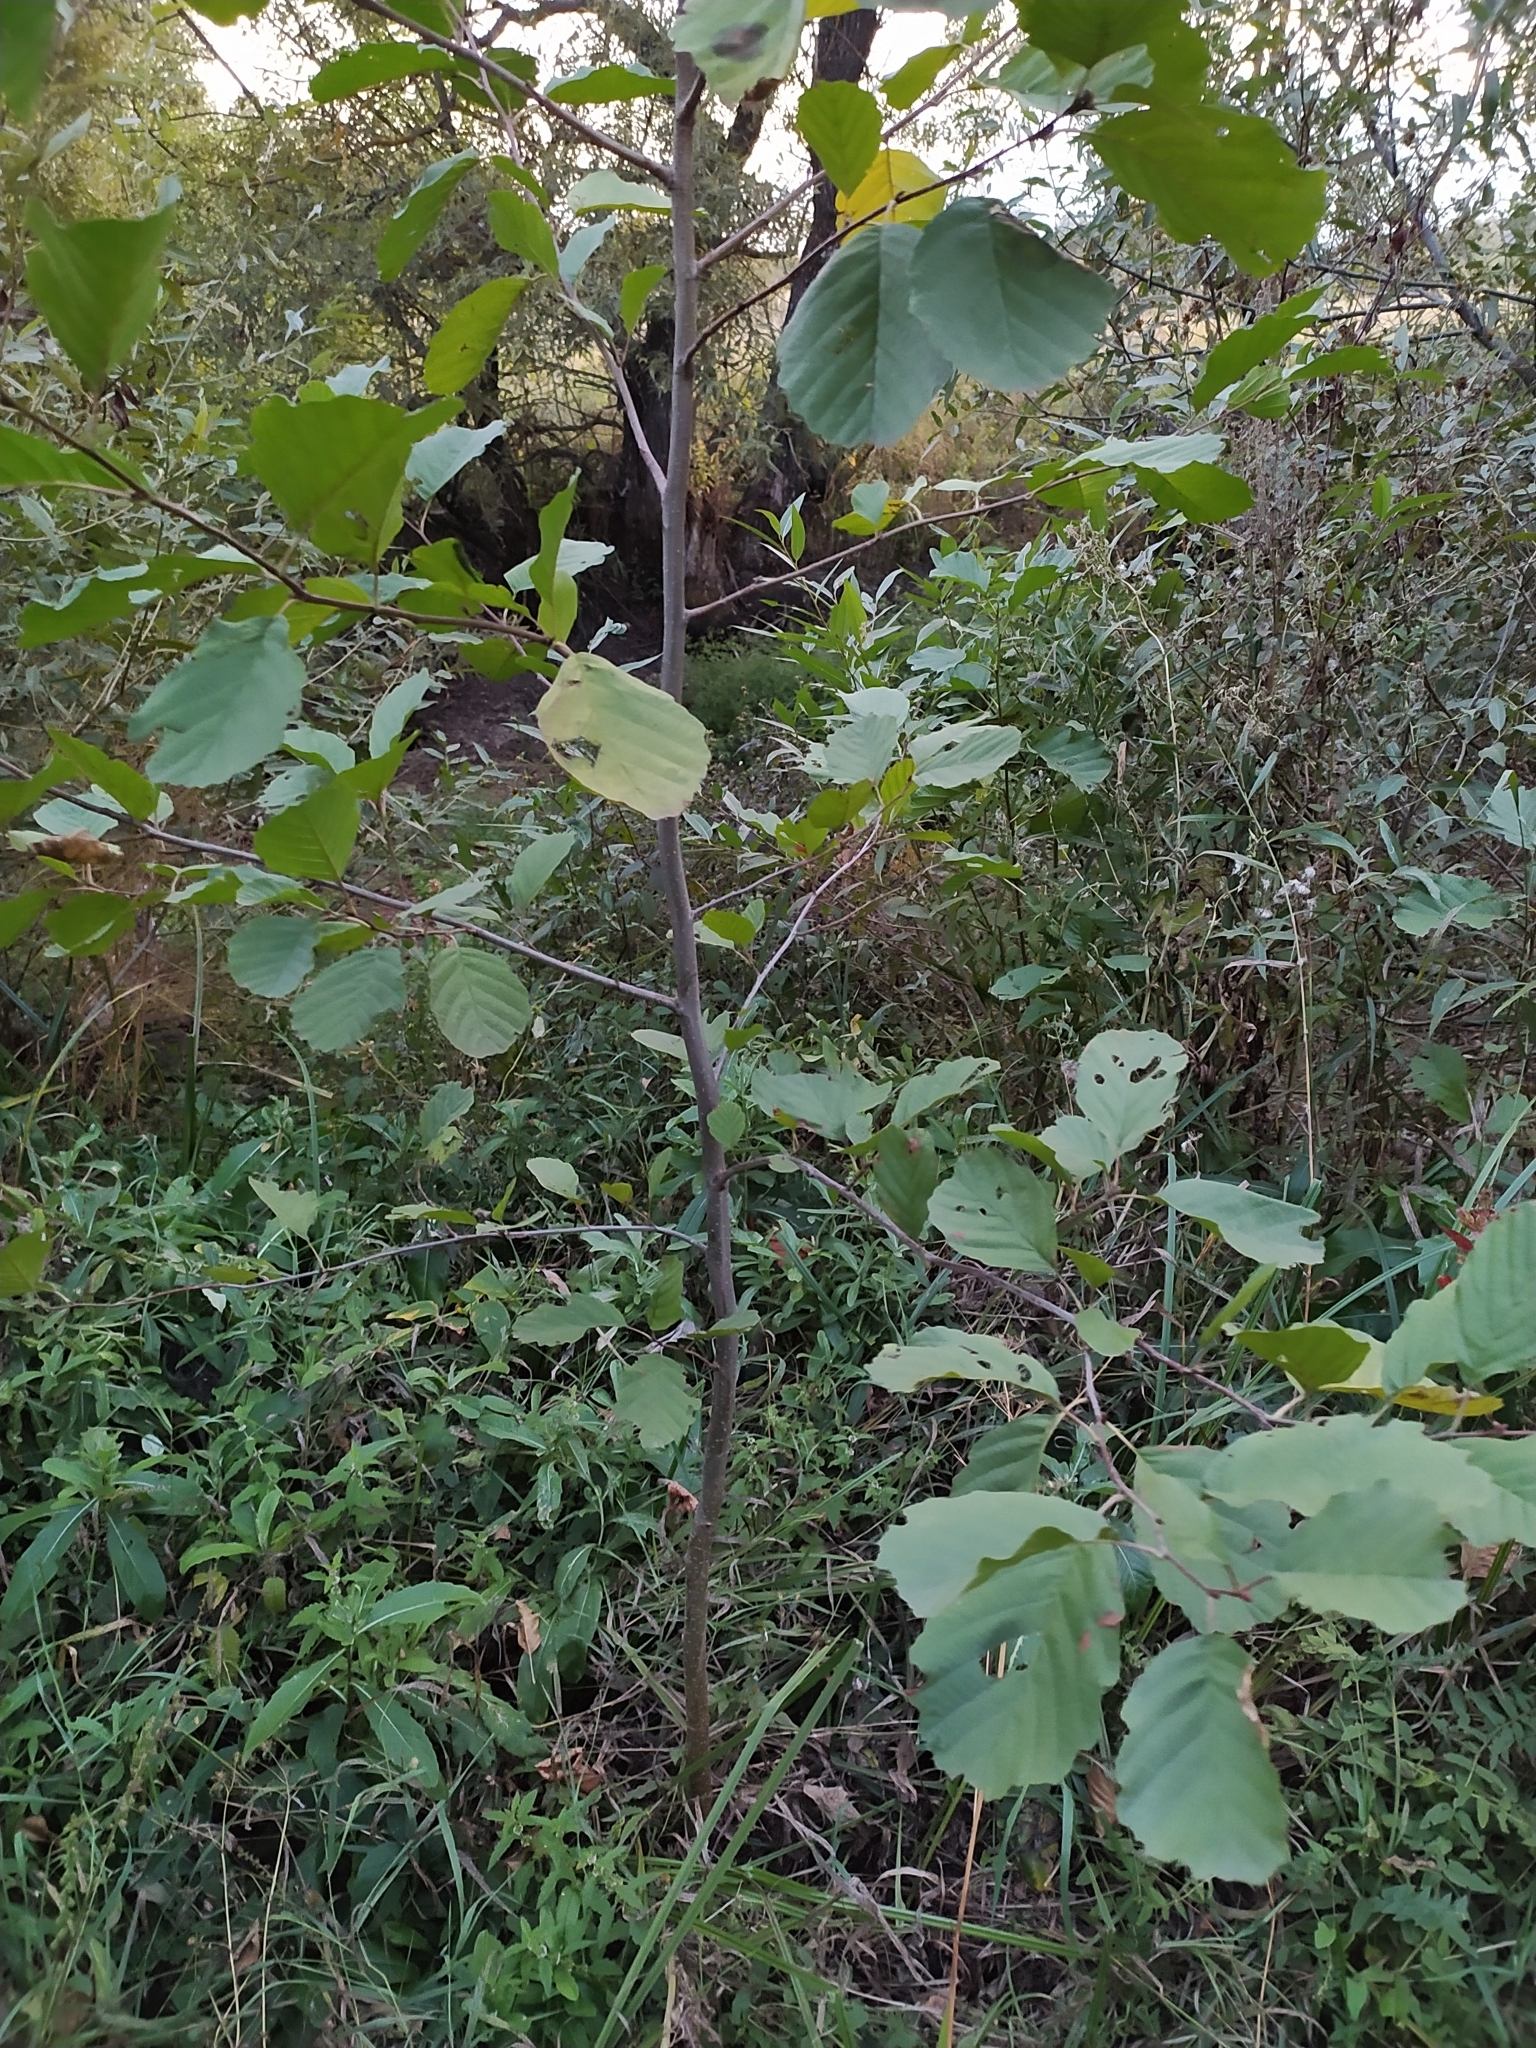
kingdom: Plantae
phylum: Tracheophyta
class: Magnoliopsida
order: Fagales
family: Betulaceae
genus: Alnus
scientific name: Alnus glutinosa
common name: Black alder
